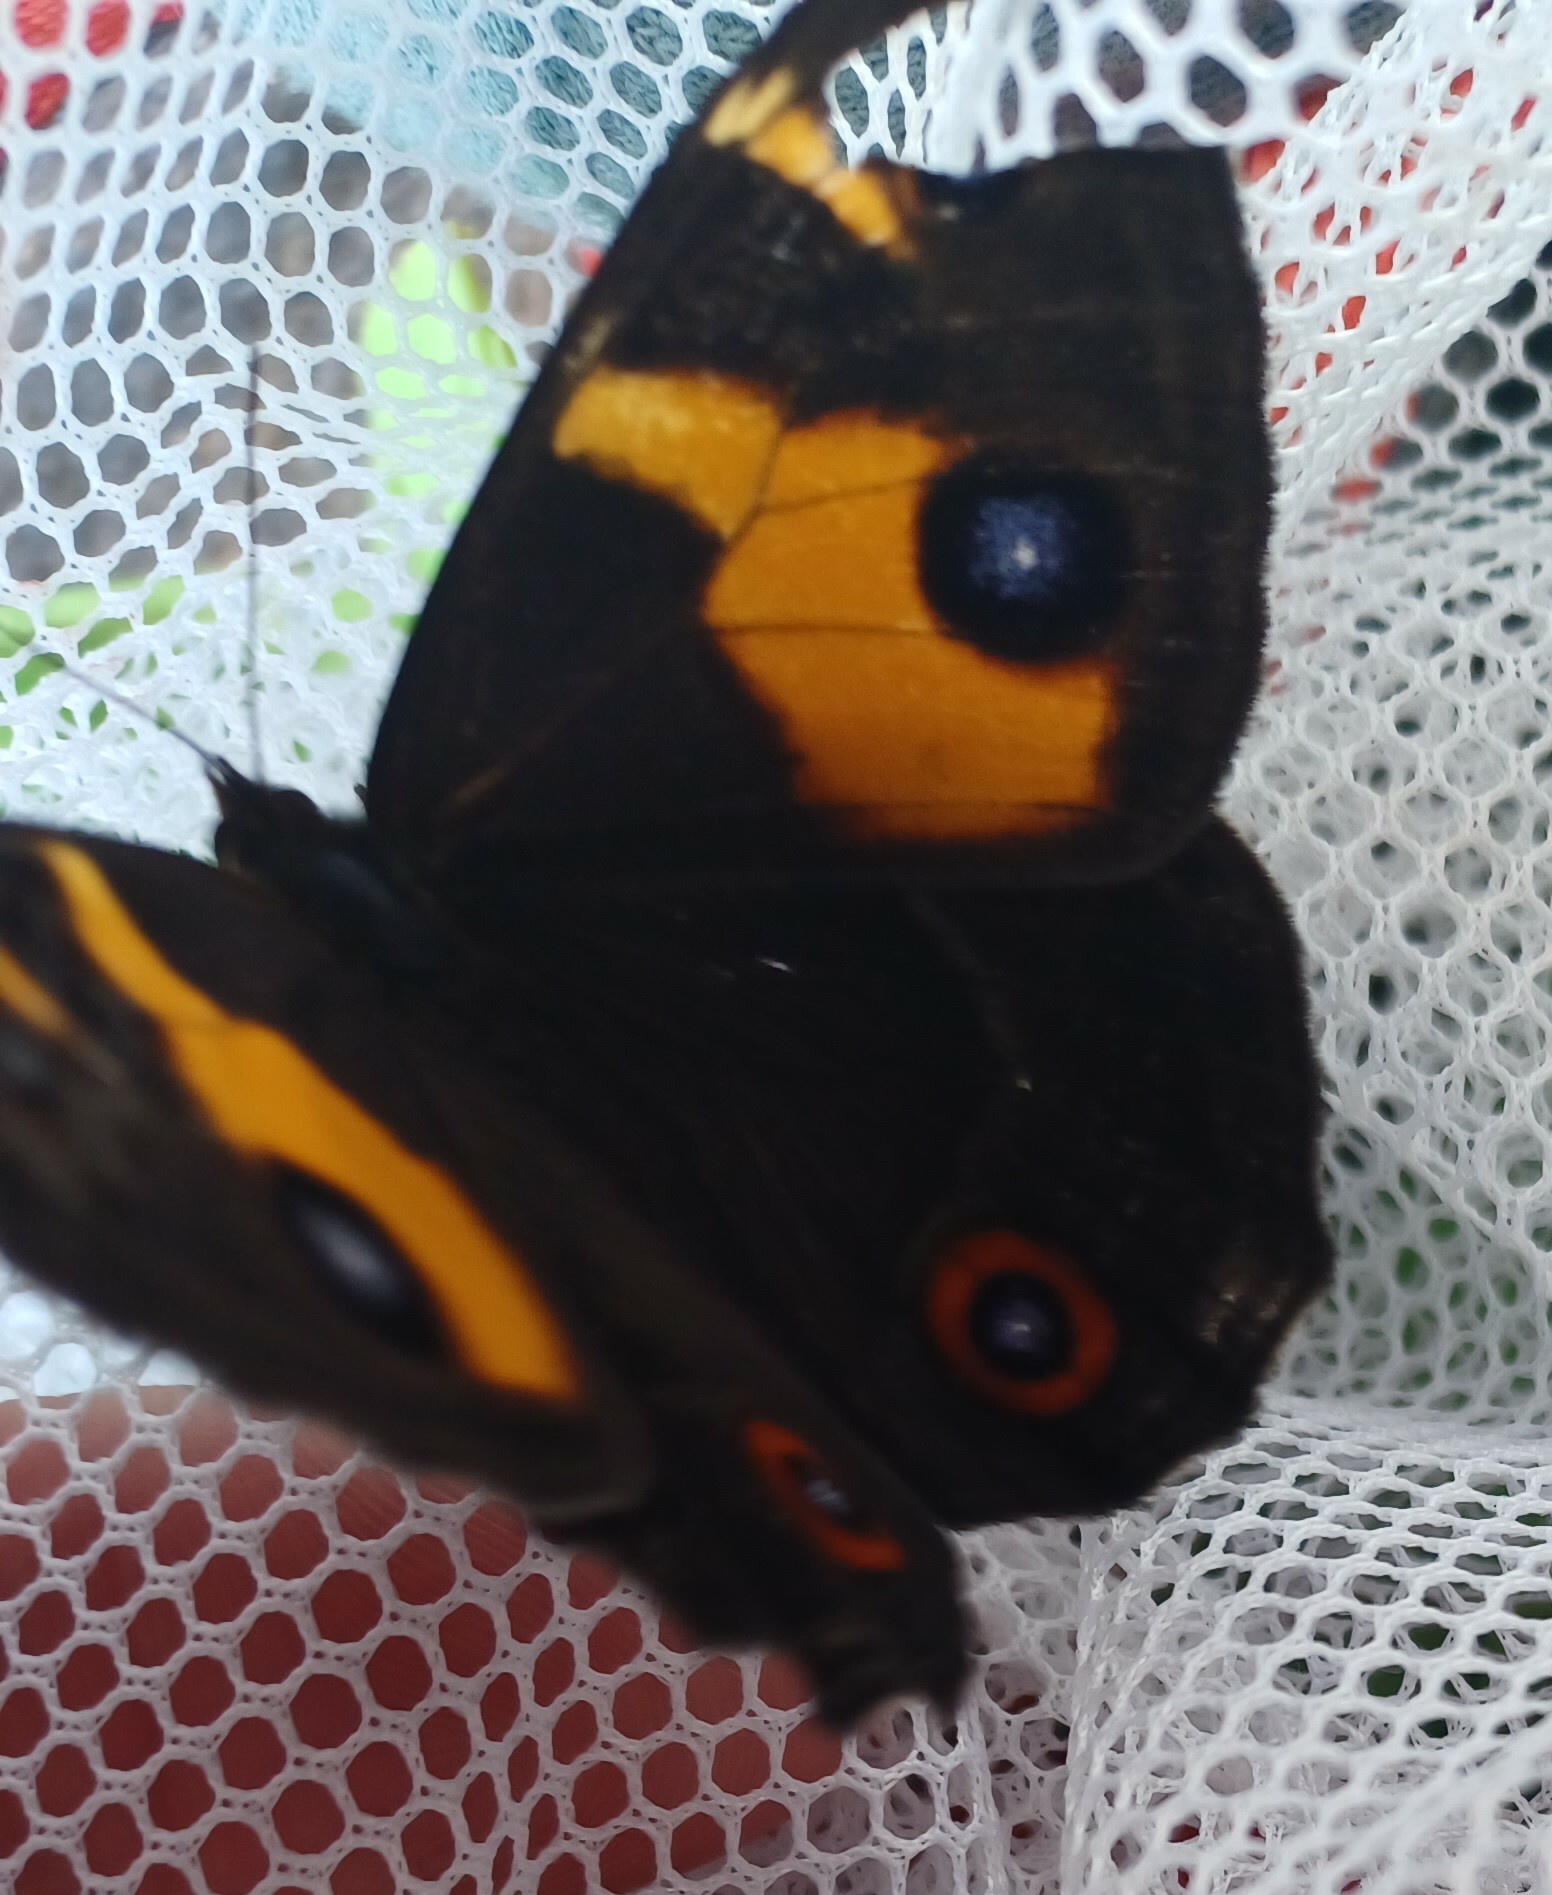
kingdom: Animalia
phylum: Arthropoda
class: Insecta
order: Lepidoptera
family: Nymphalidae
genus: Tisiphone
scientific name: Tisiphone abeona
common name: Swordgrass brown
